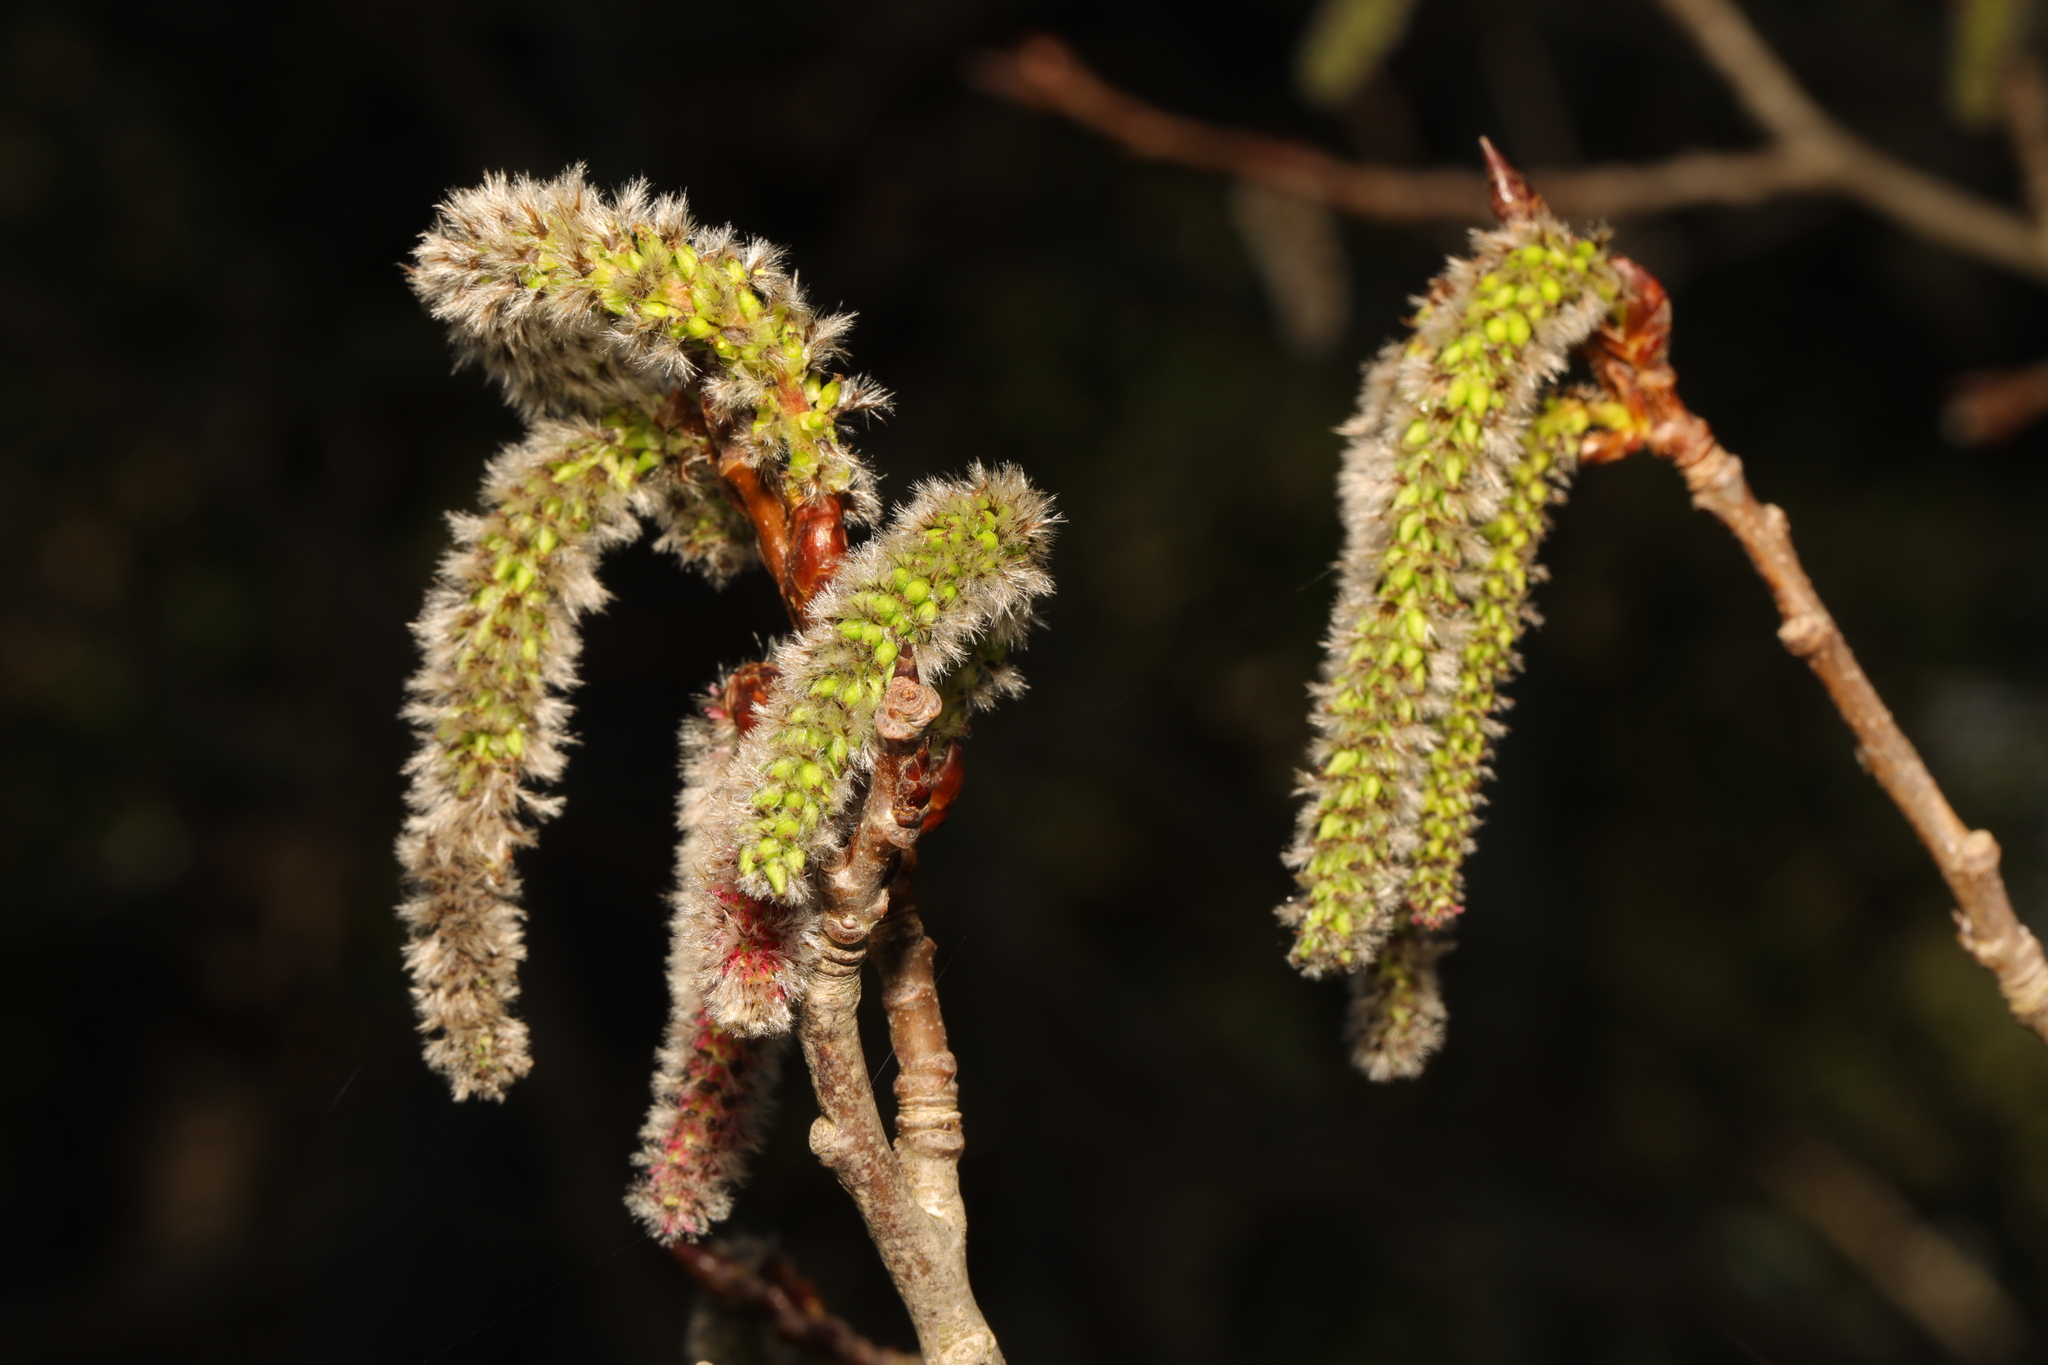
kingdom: Plantae
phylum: Tracheophyta
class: Magnoliopsida
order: Malpighiales
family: Salicaceae
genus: Populus
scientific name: Populus tremula
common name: European aspen
